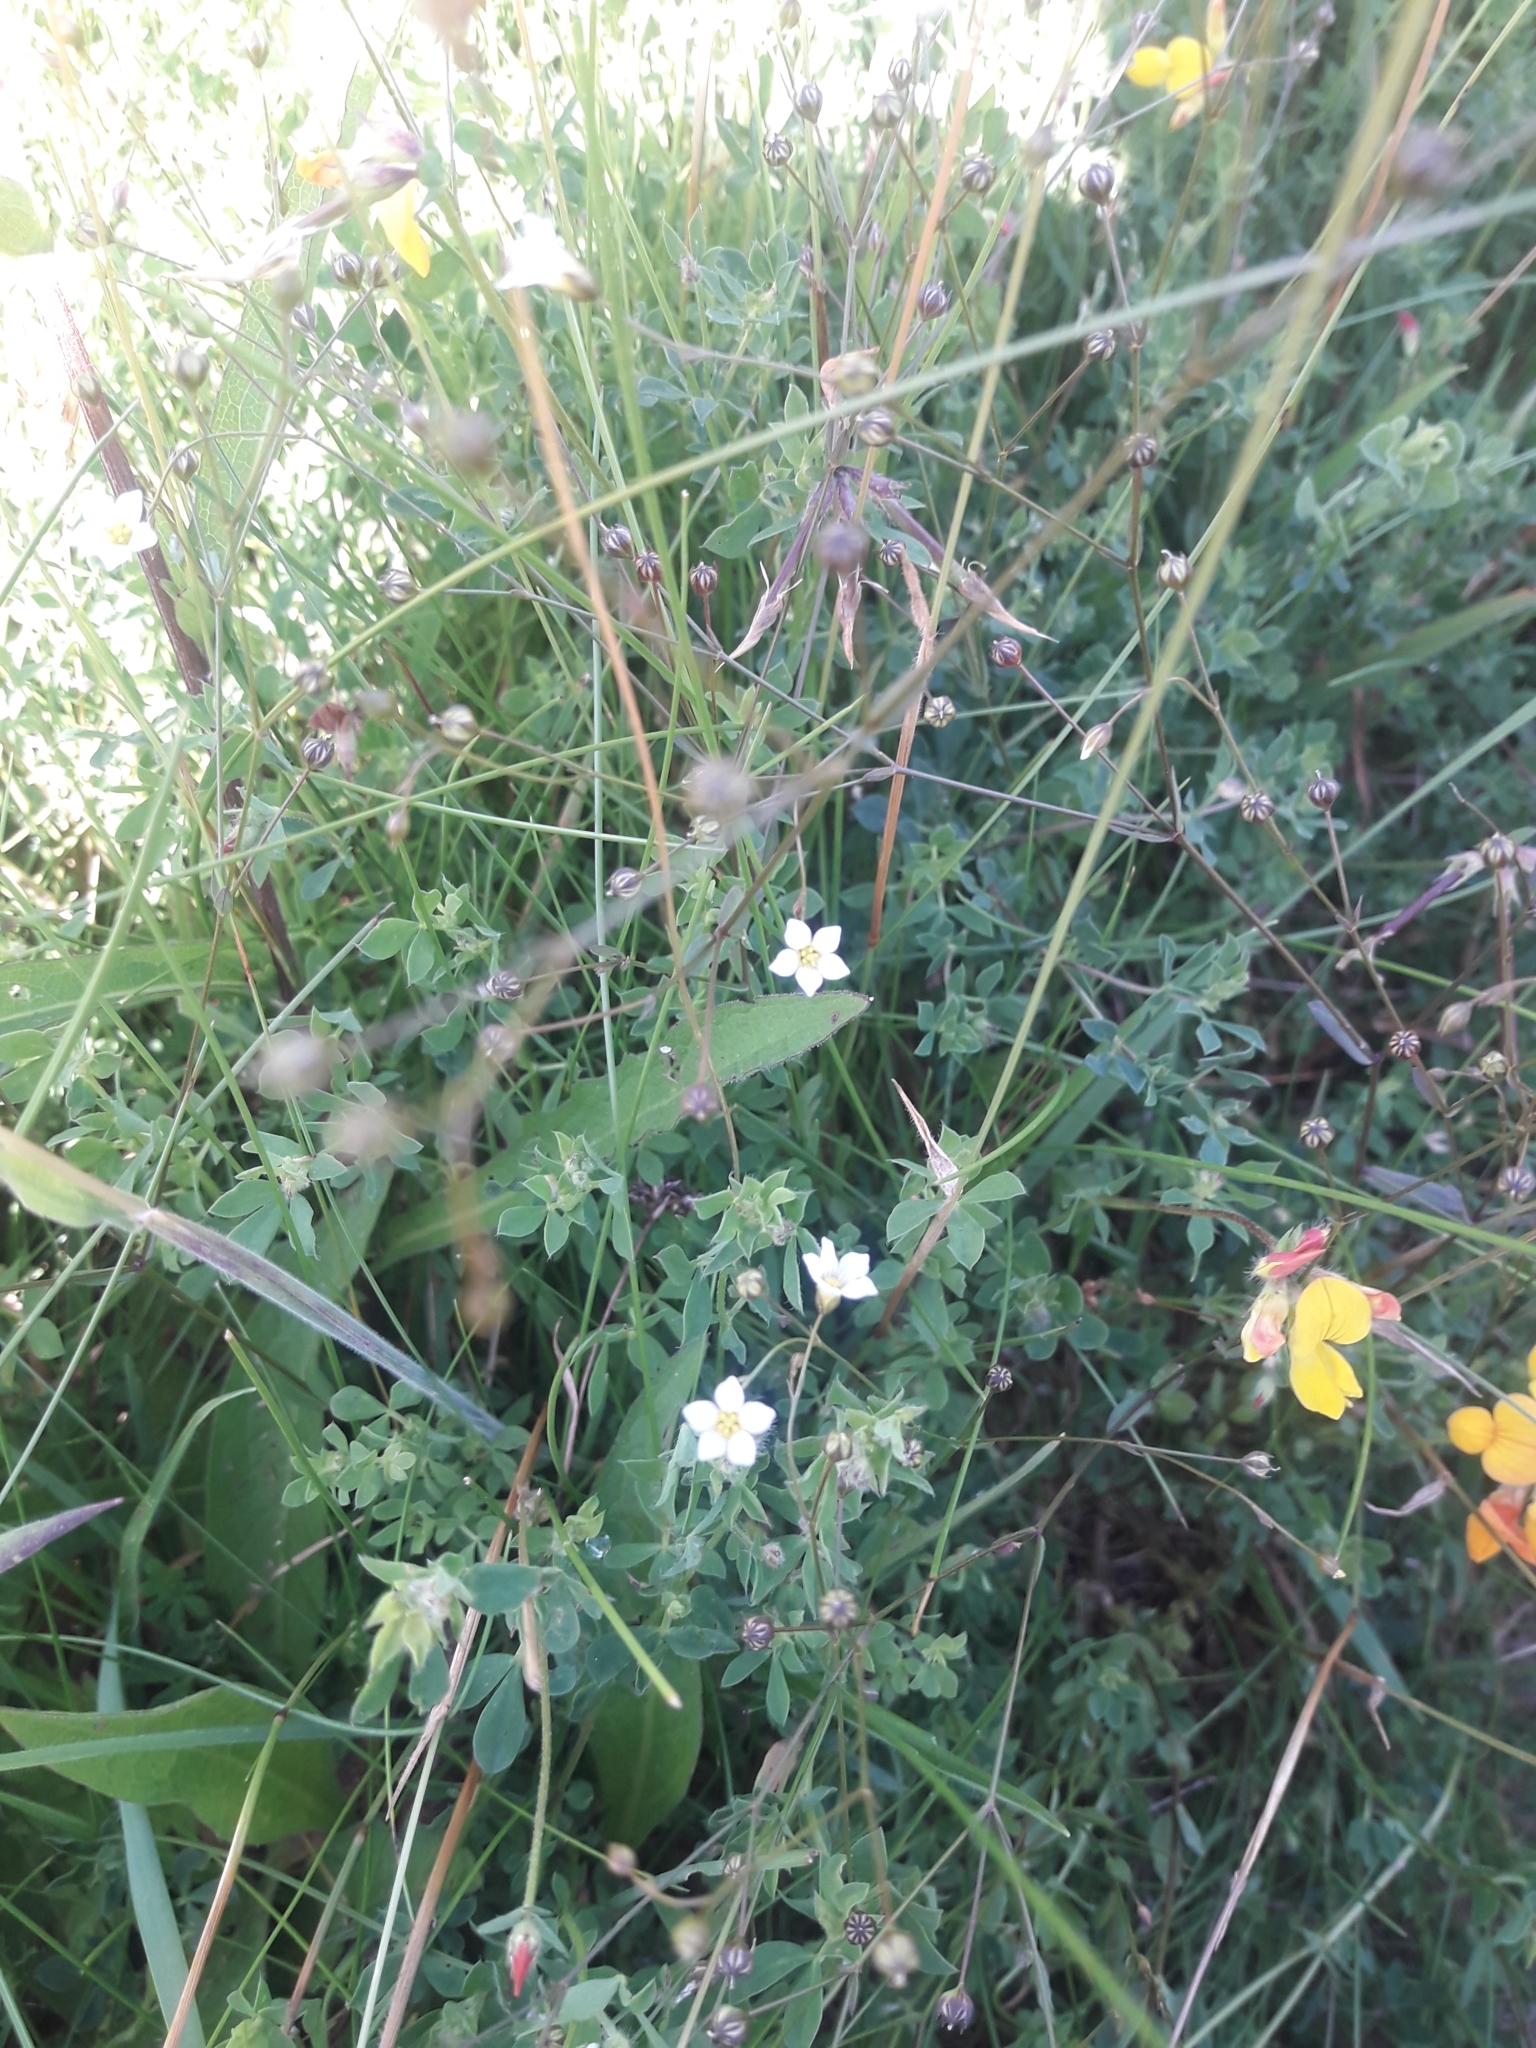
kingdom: Plantae
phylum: Tracheophyta
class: Magnoliopsida
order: Malpighiales
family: Linaceae
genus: Linum
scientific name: Linum catharticum
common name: Fairy flax
